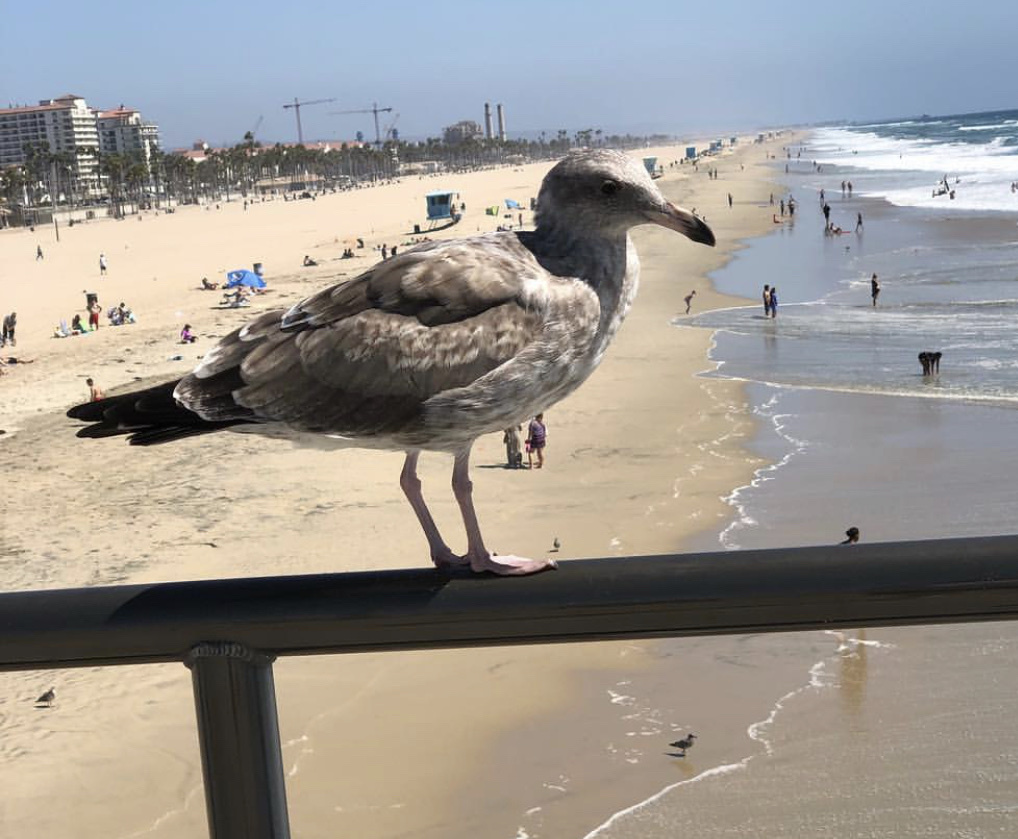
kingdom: Animalia
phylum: Chordata
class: Aves
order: Charadriiformes
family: Laridae
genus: Larus
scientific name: Larus occidentalis
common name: Western gull
